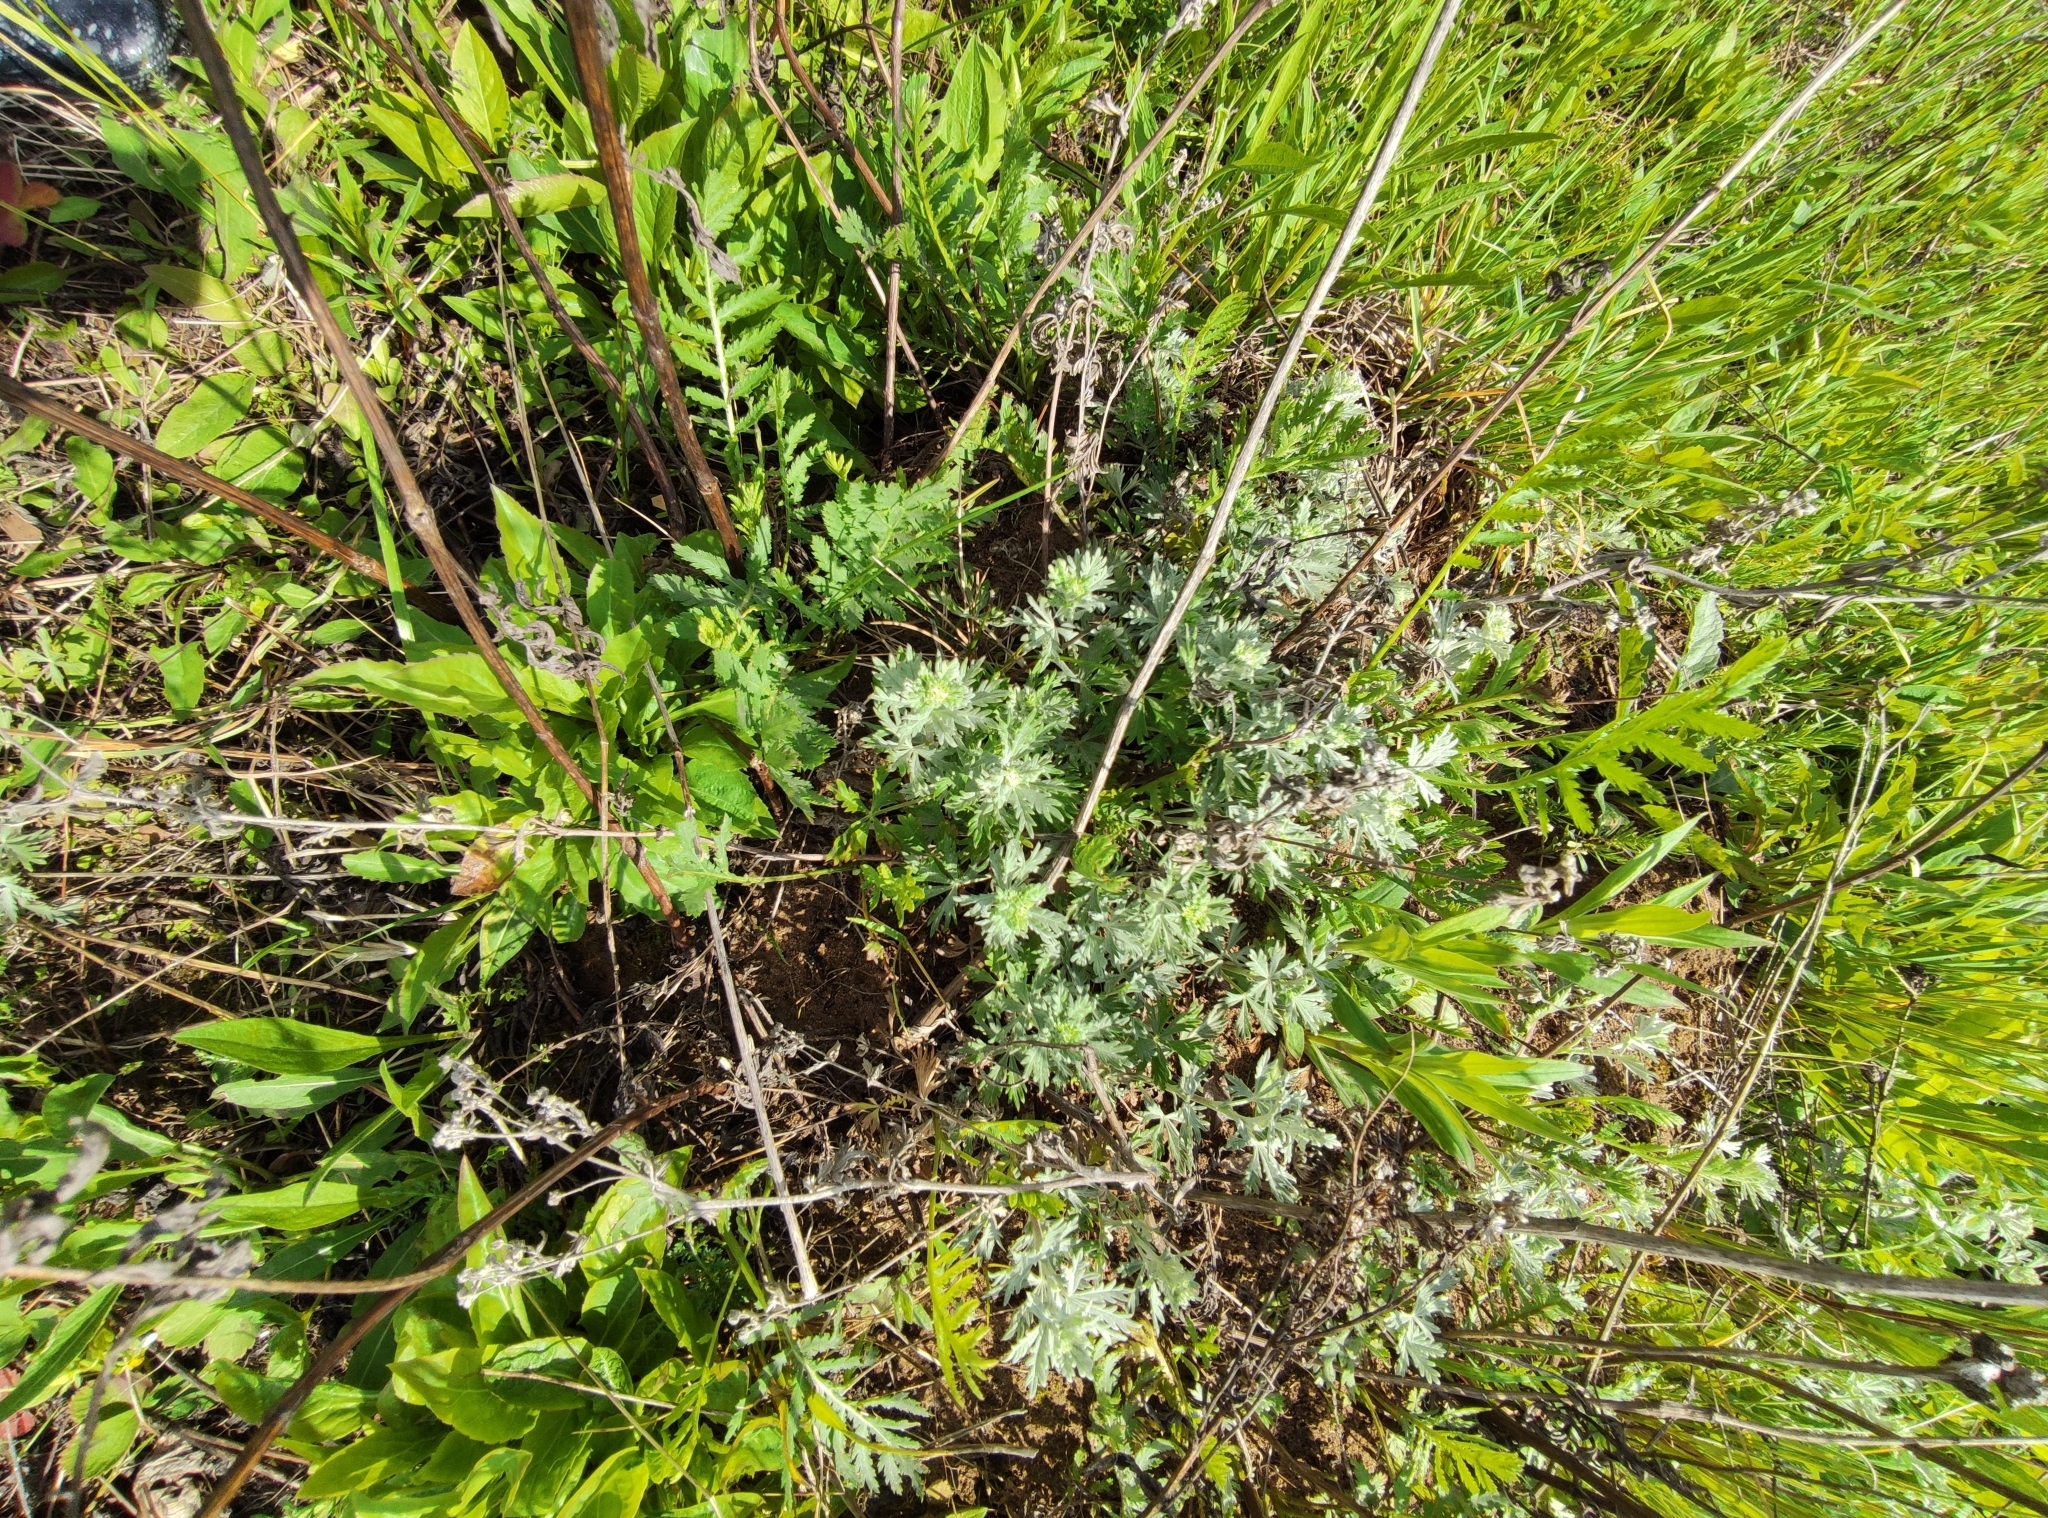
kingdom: Plantae
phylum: Tracheophyta
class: Magnoliopsida
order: Rosales
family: Rosaceae
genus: Potentilla
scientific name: Potentilla argentea
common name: Hoary cinquefoil
